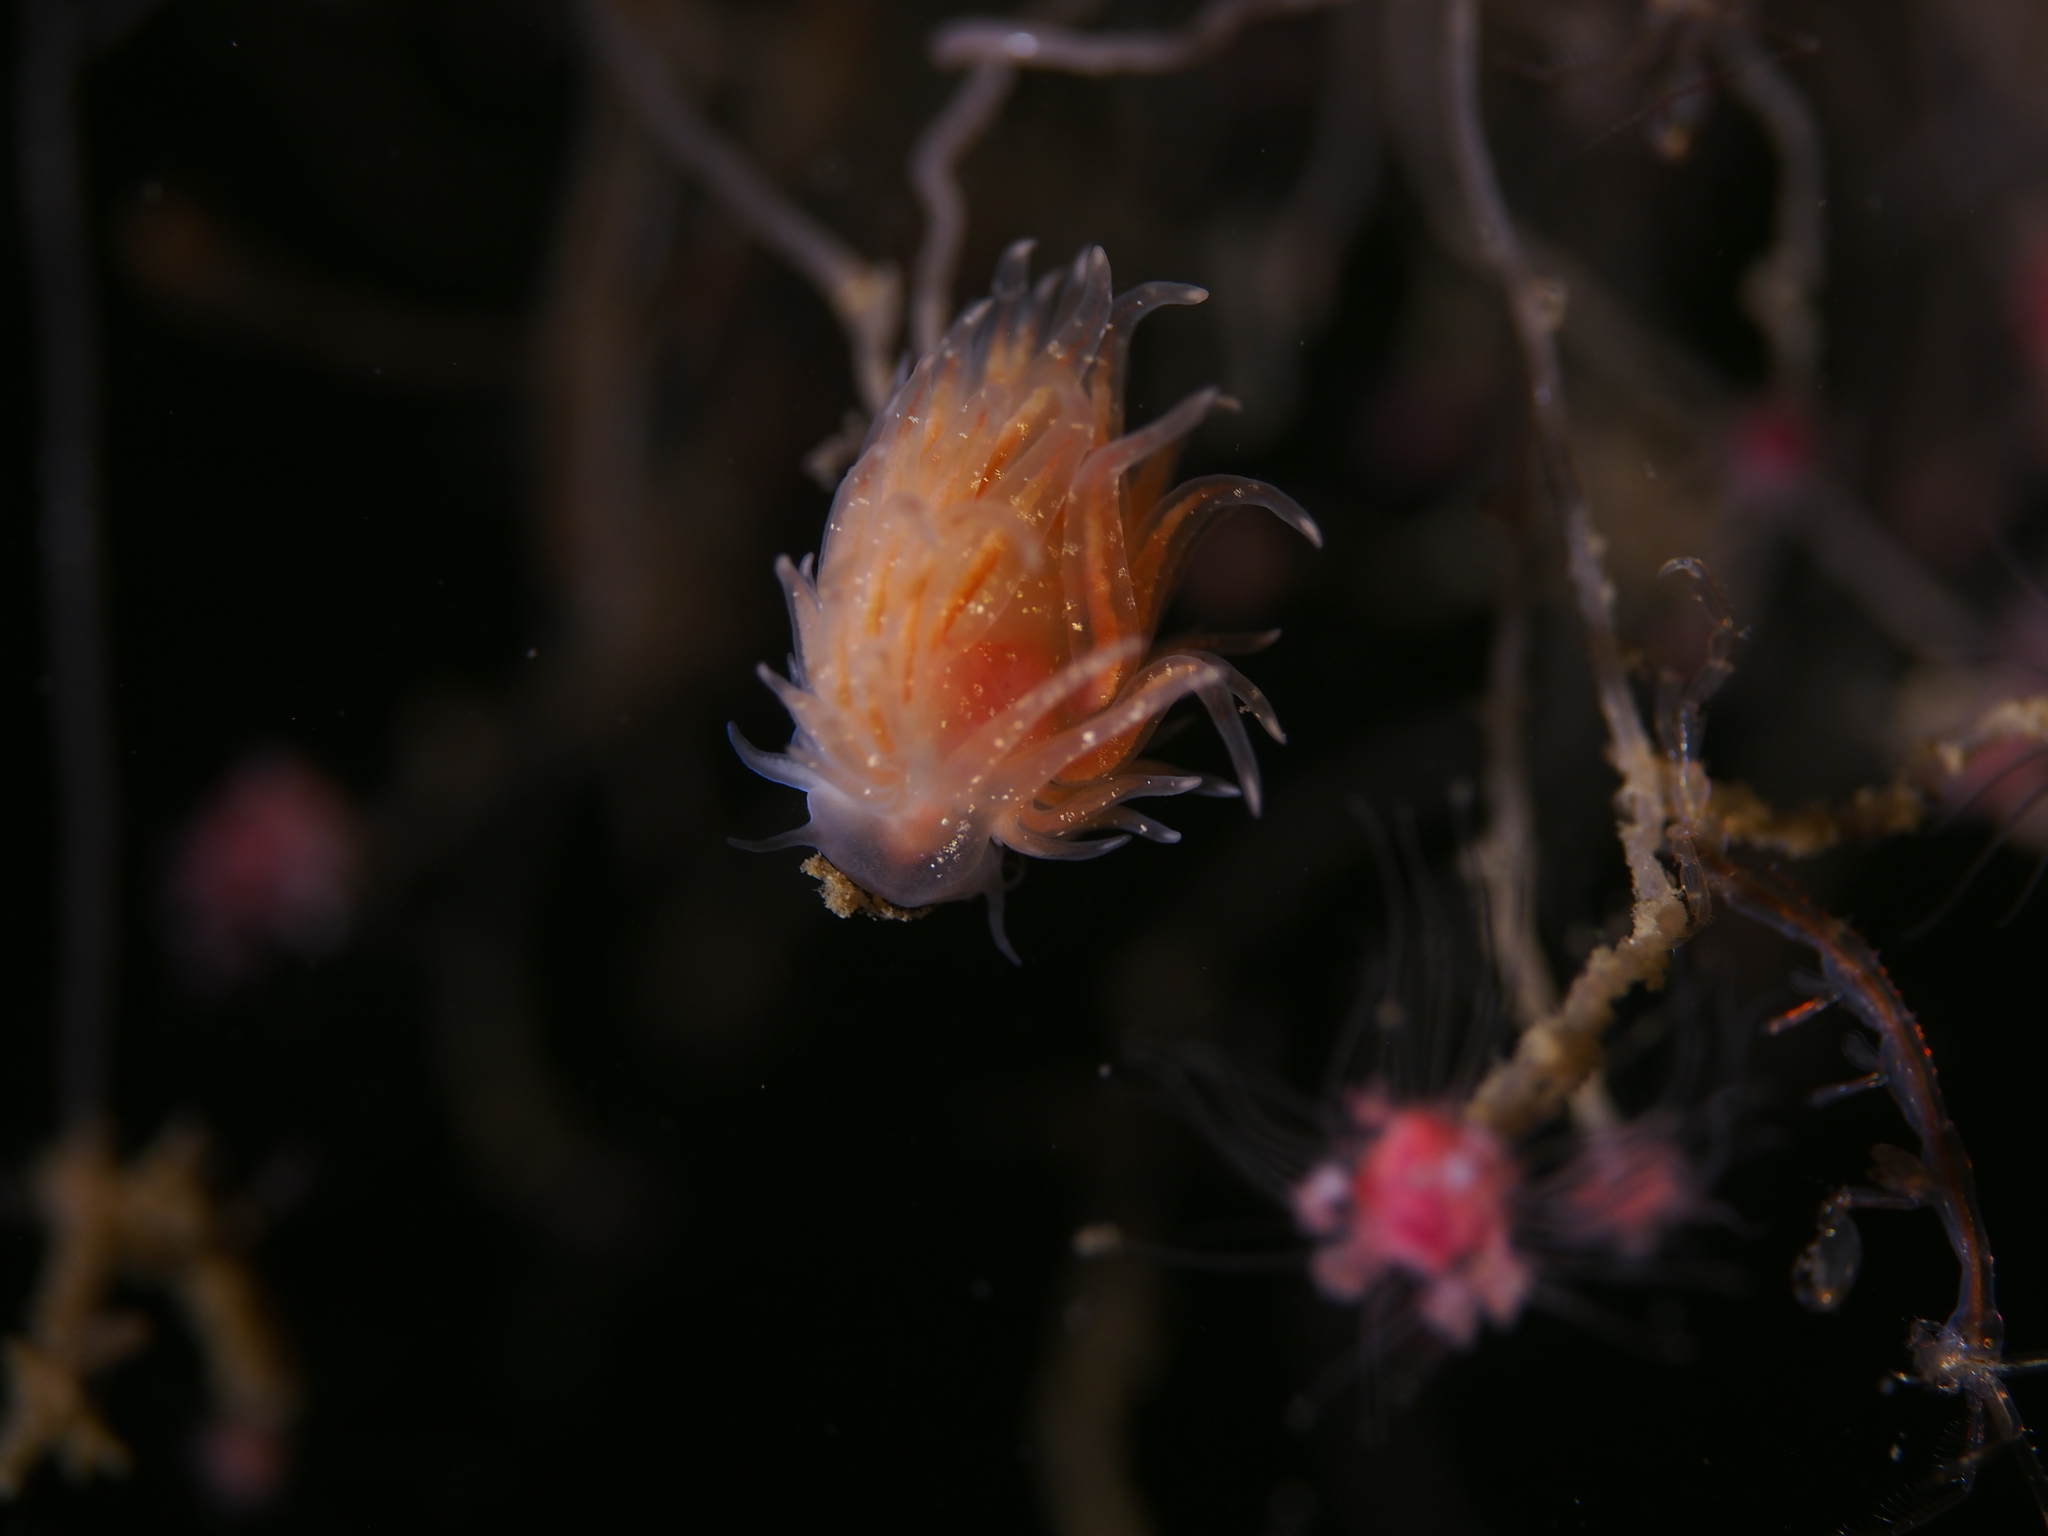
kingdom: Animalia
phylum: Mollusca
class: Gastropoda
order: Nudibranchia
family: Cumanotidae
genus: Cumanotus
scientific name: Cumanotus beaumonti
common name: Polyp aeolis
